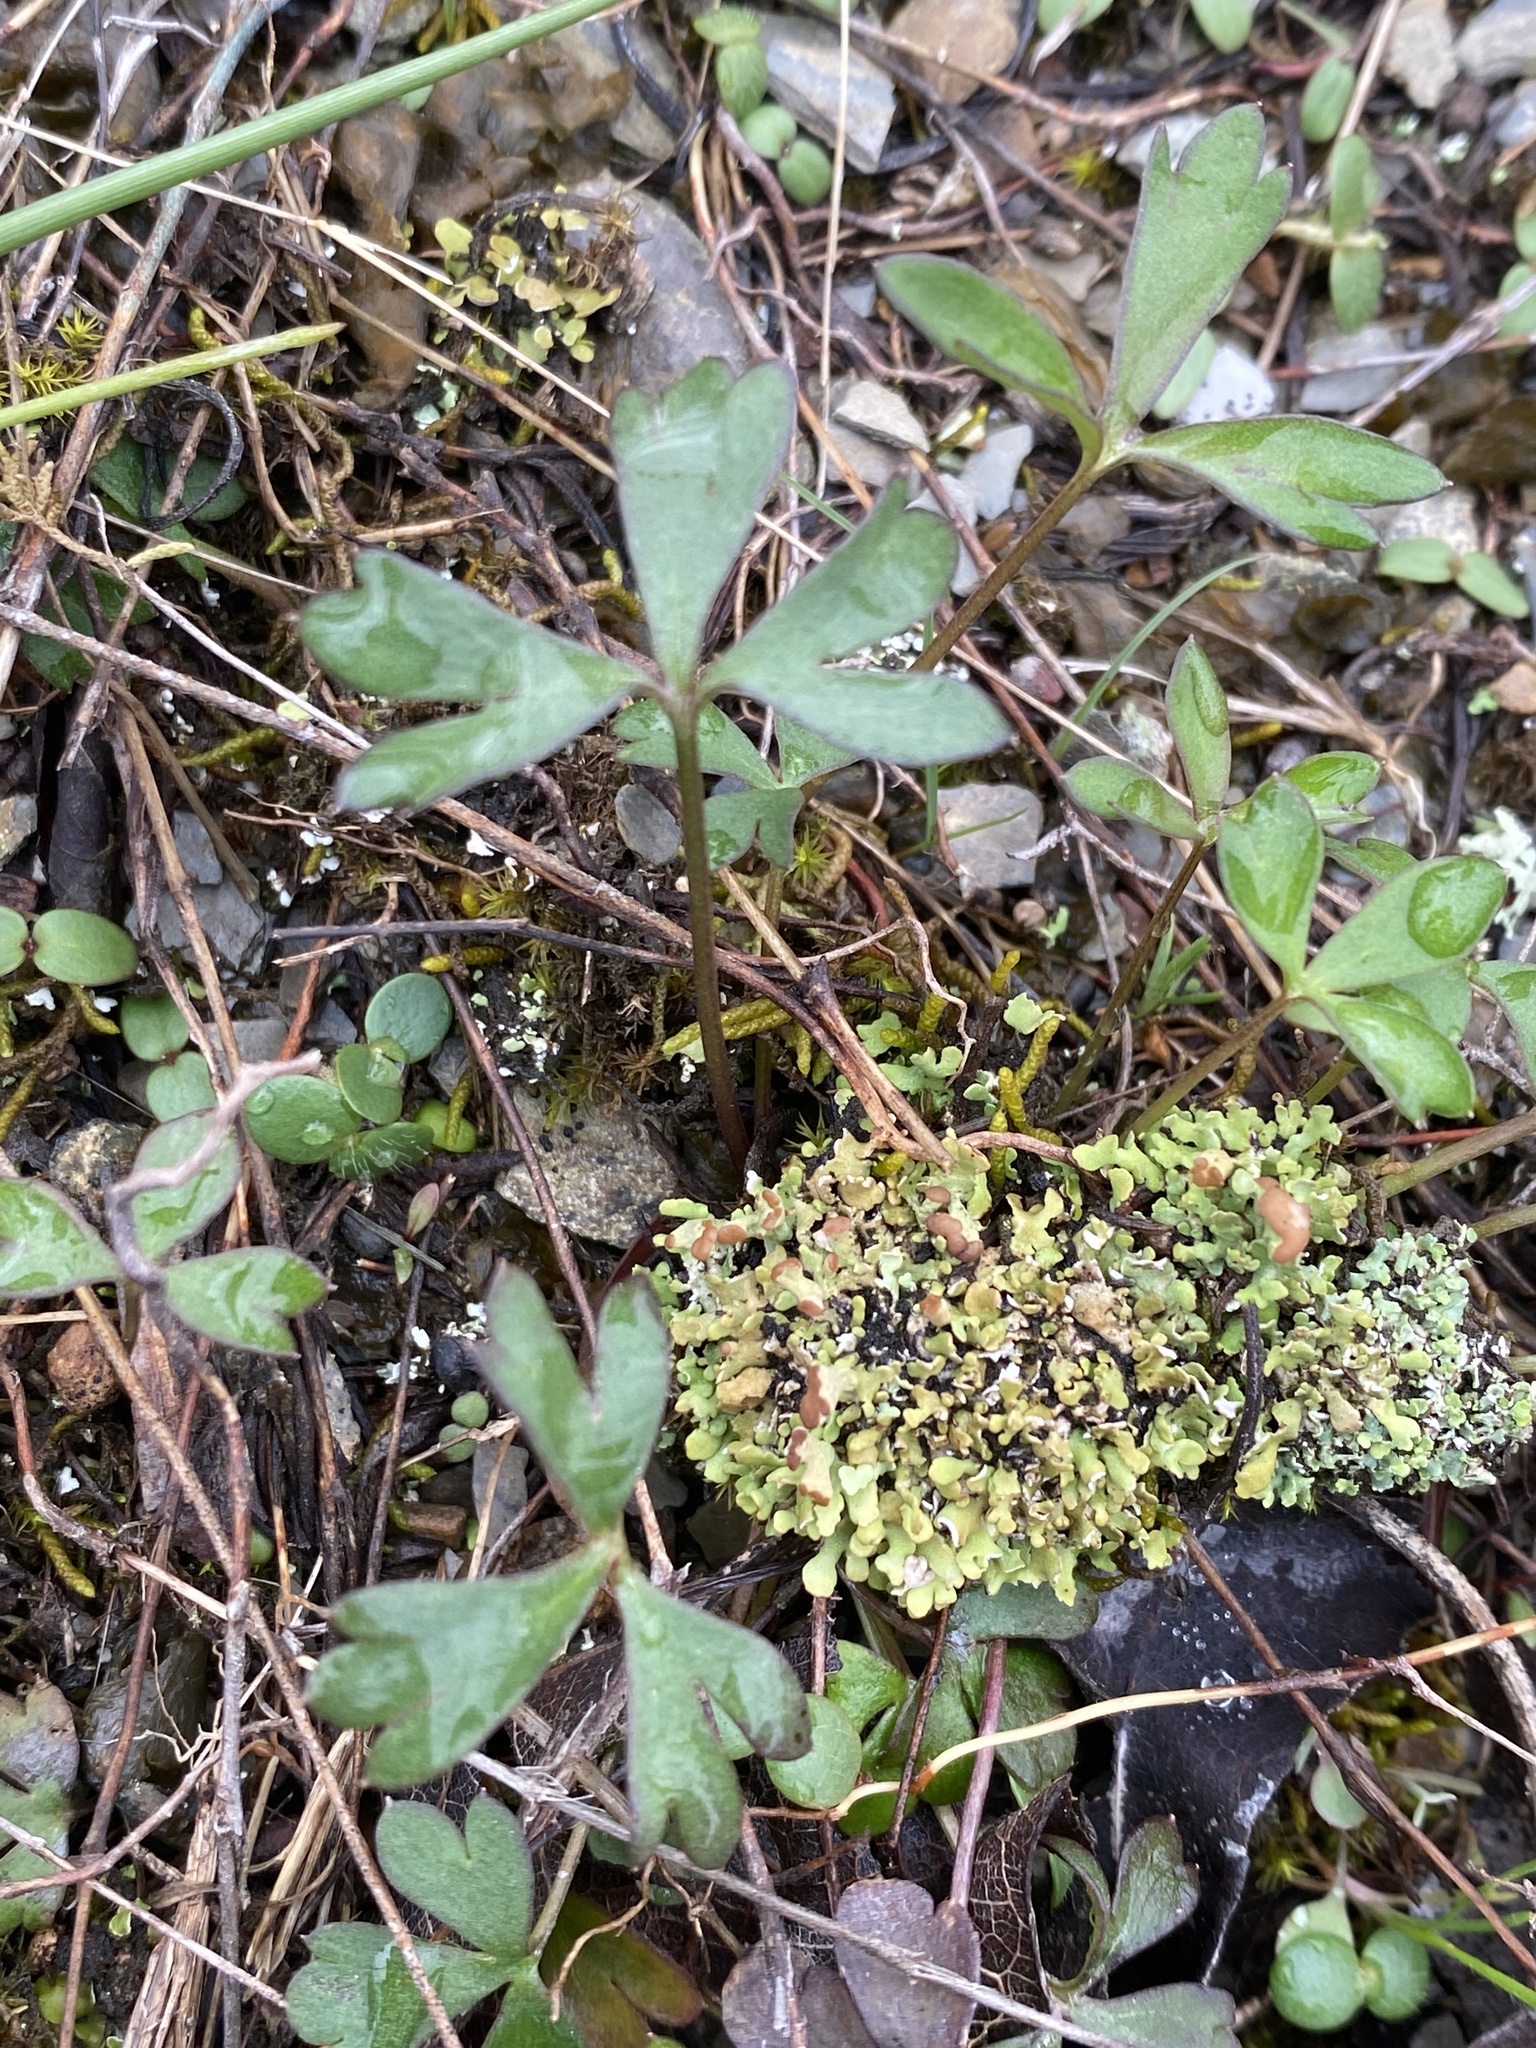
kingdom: Plantae
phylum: Tracheophyta
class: Magnoliopsida
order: Ranunculales
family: Ranunculaceae
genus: Delphinium
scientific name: Delphinium carolinianum
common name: Carolina larkspur
